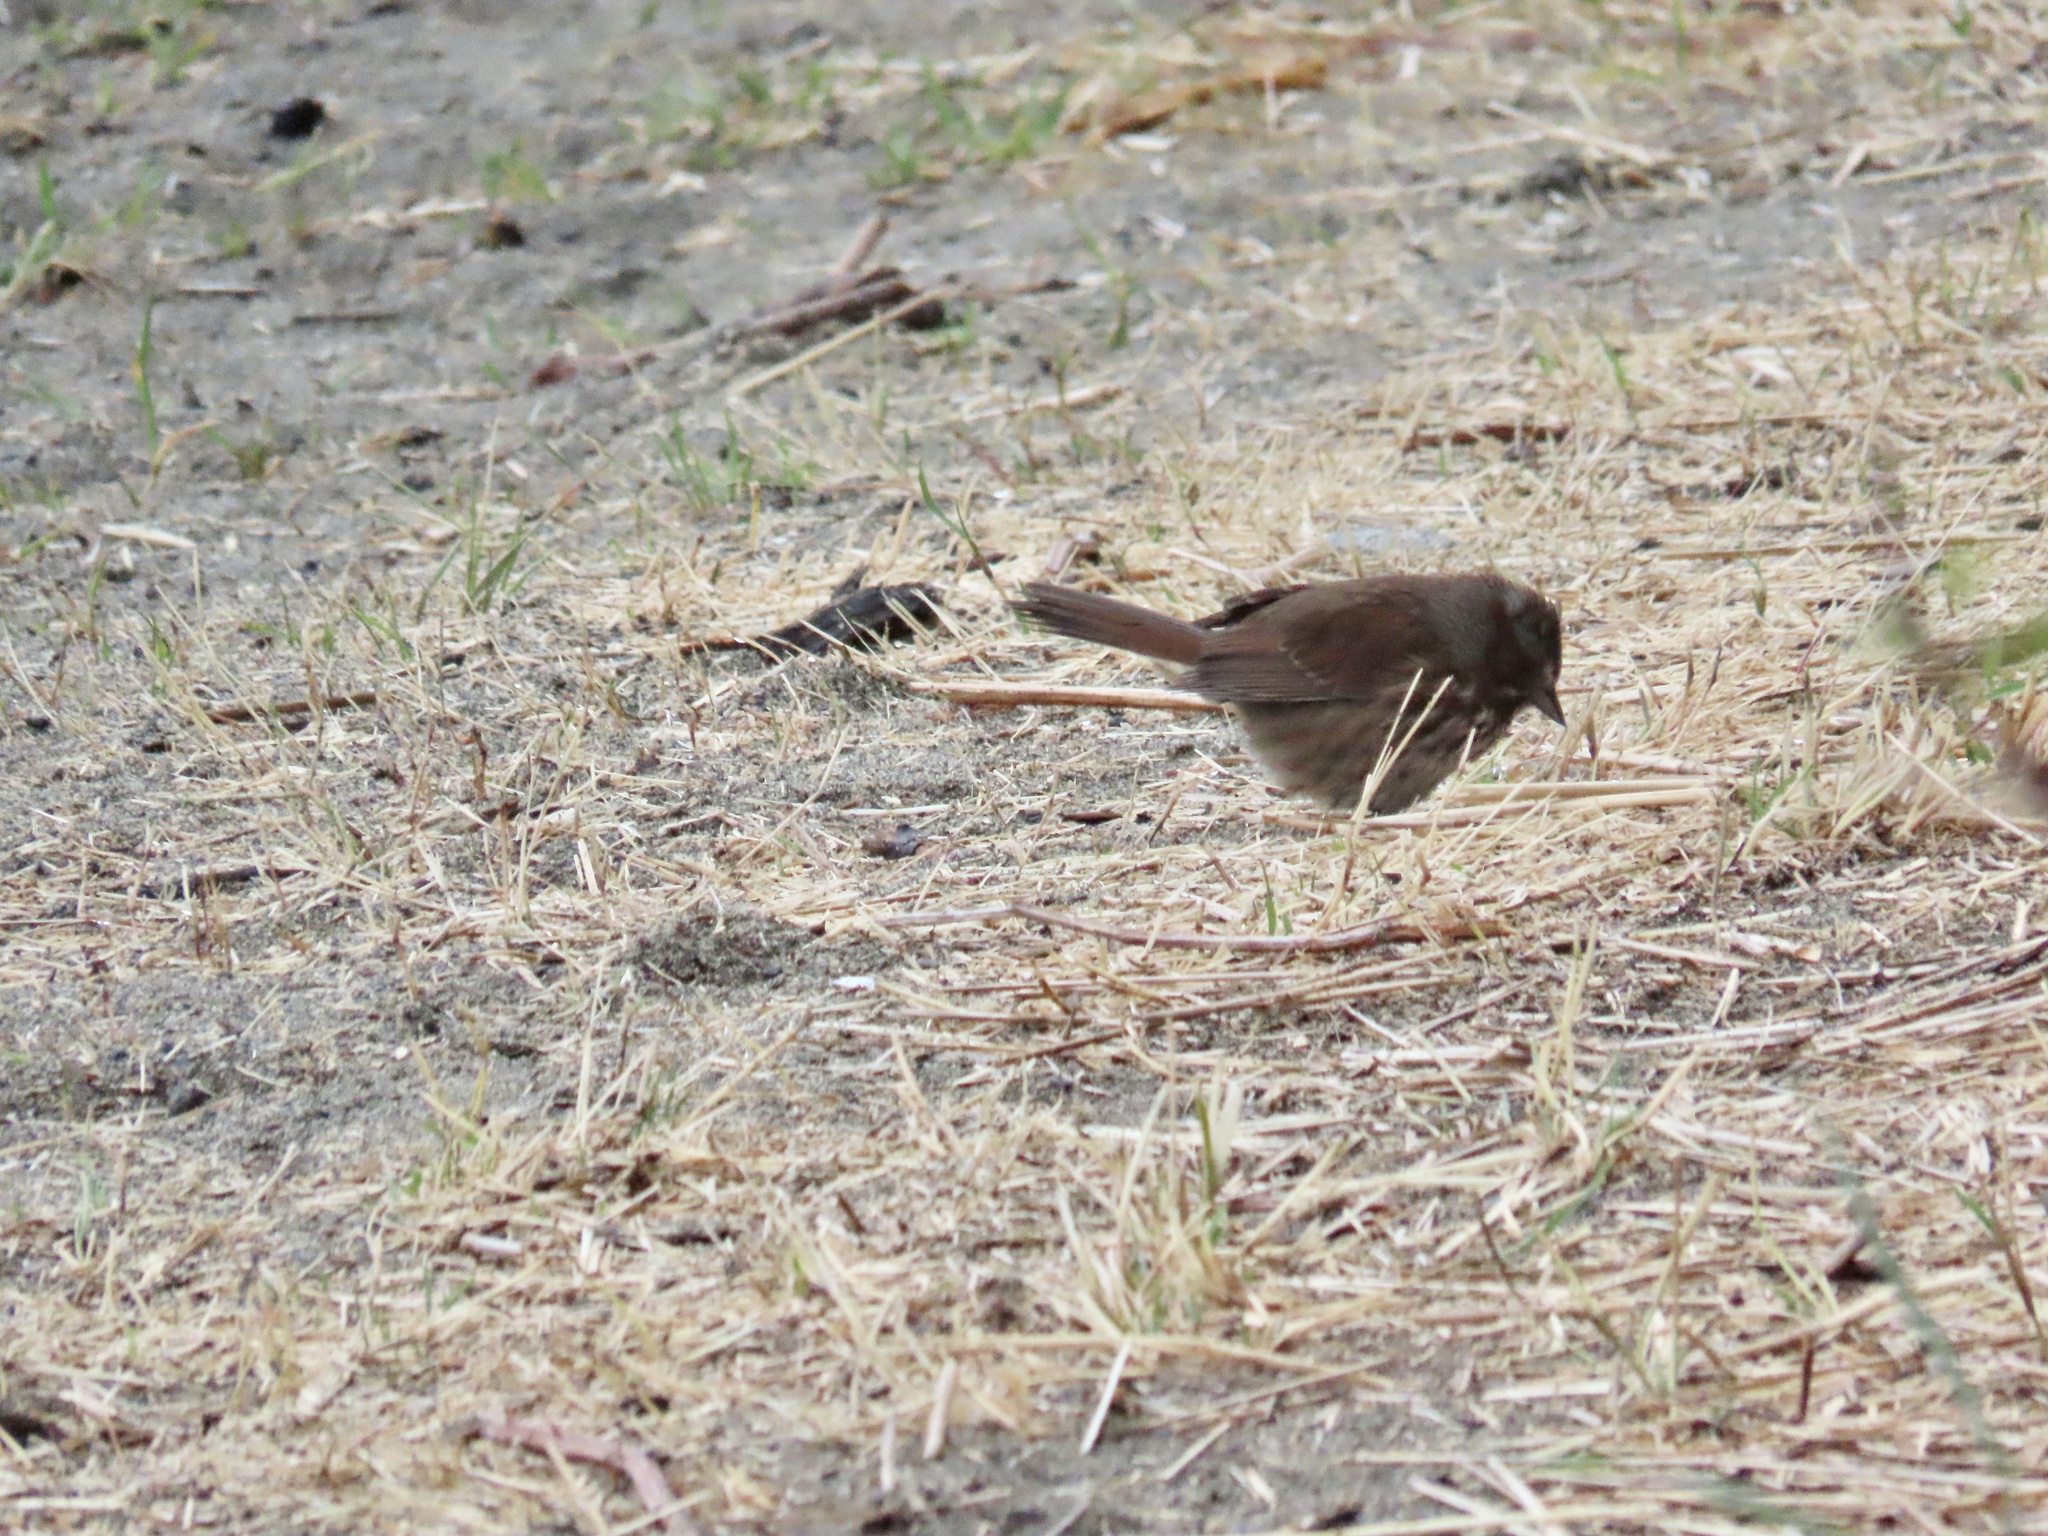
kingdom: Animalia
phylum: Chordata
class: Aves
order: Passeriformes
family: Passerellidae
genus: Melospiza
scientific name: Melospiza melodia
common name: Song sparrow
